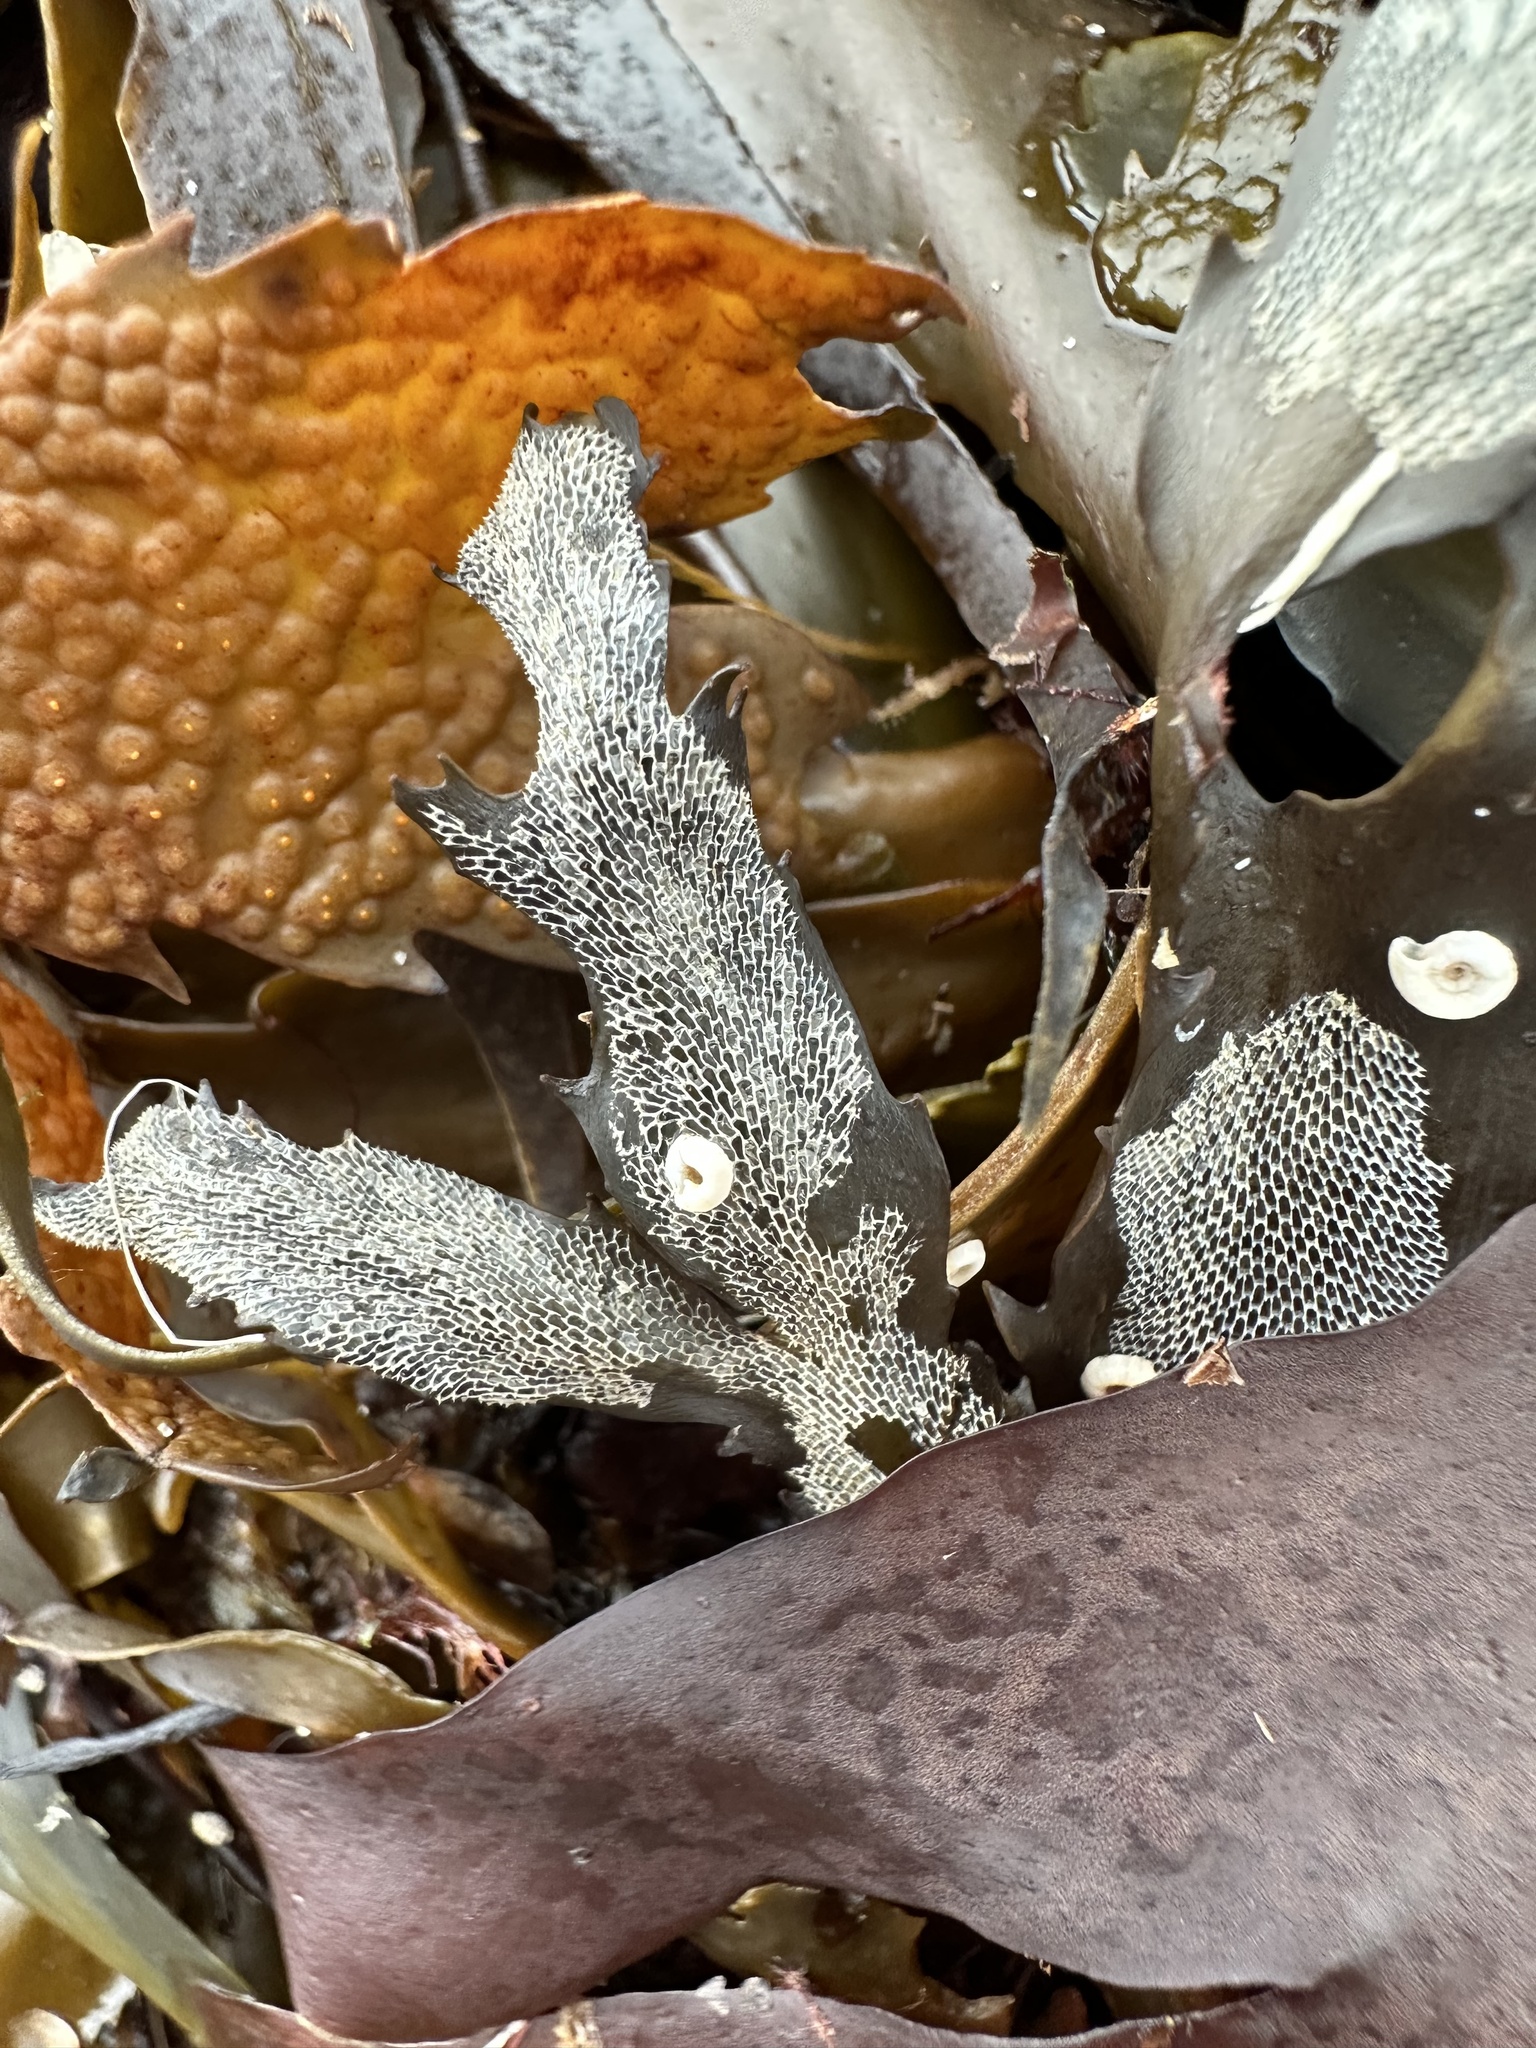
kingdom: Animalia
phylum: Bryozoa
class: Gymnolaemata
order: Cheilostomatida
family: Membraniporidae
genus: Membranipora
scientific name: Membranipora membranacea
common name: Sea mat
